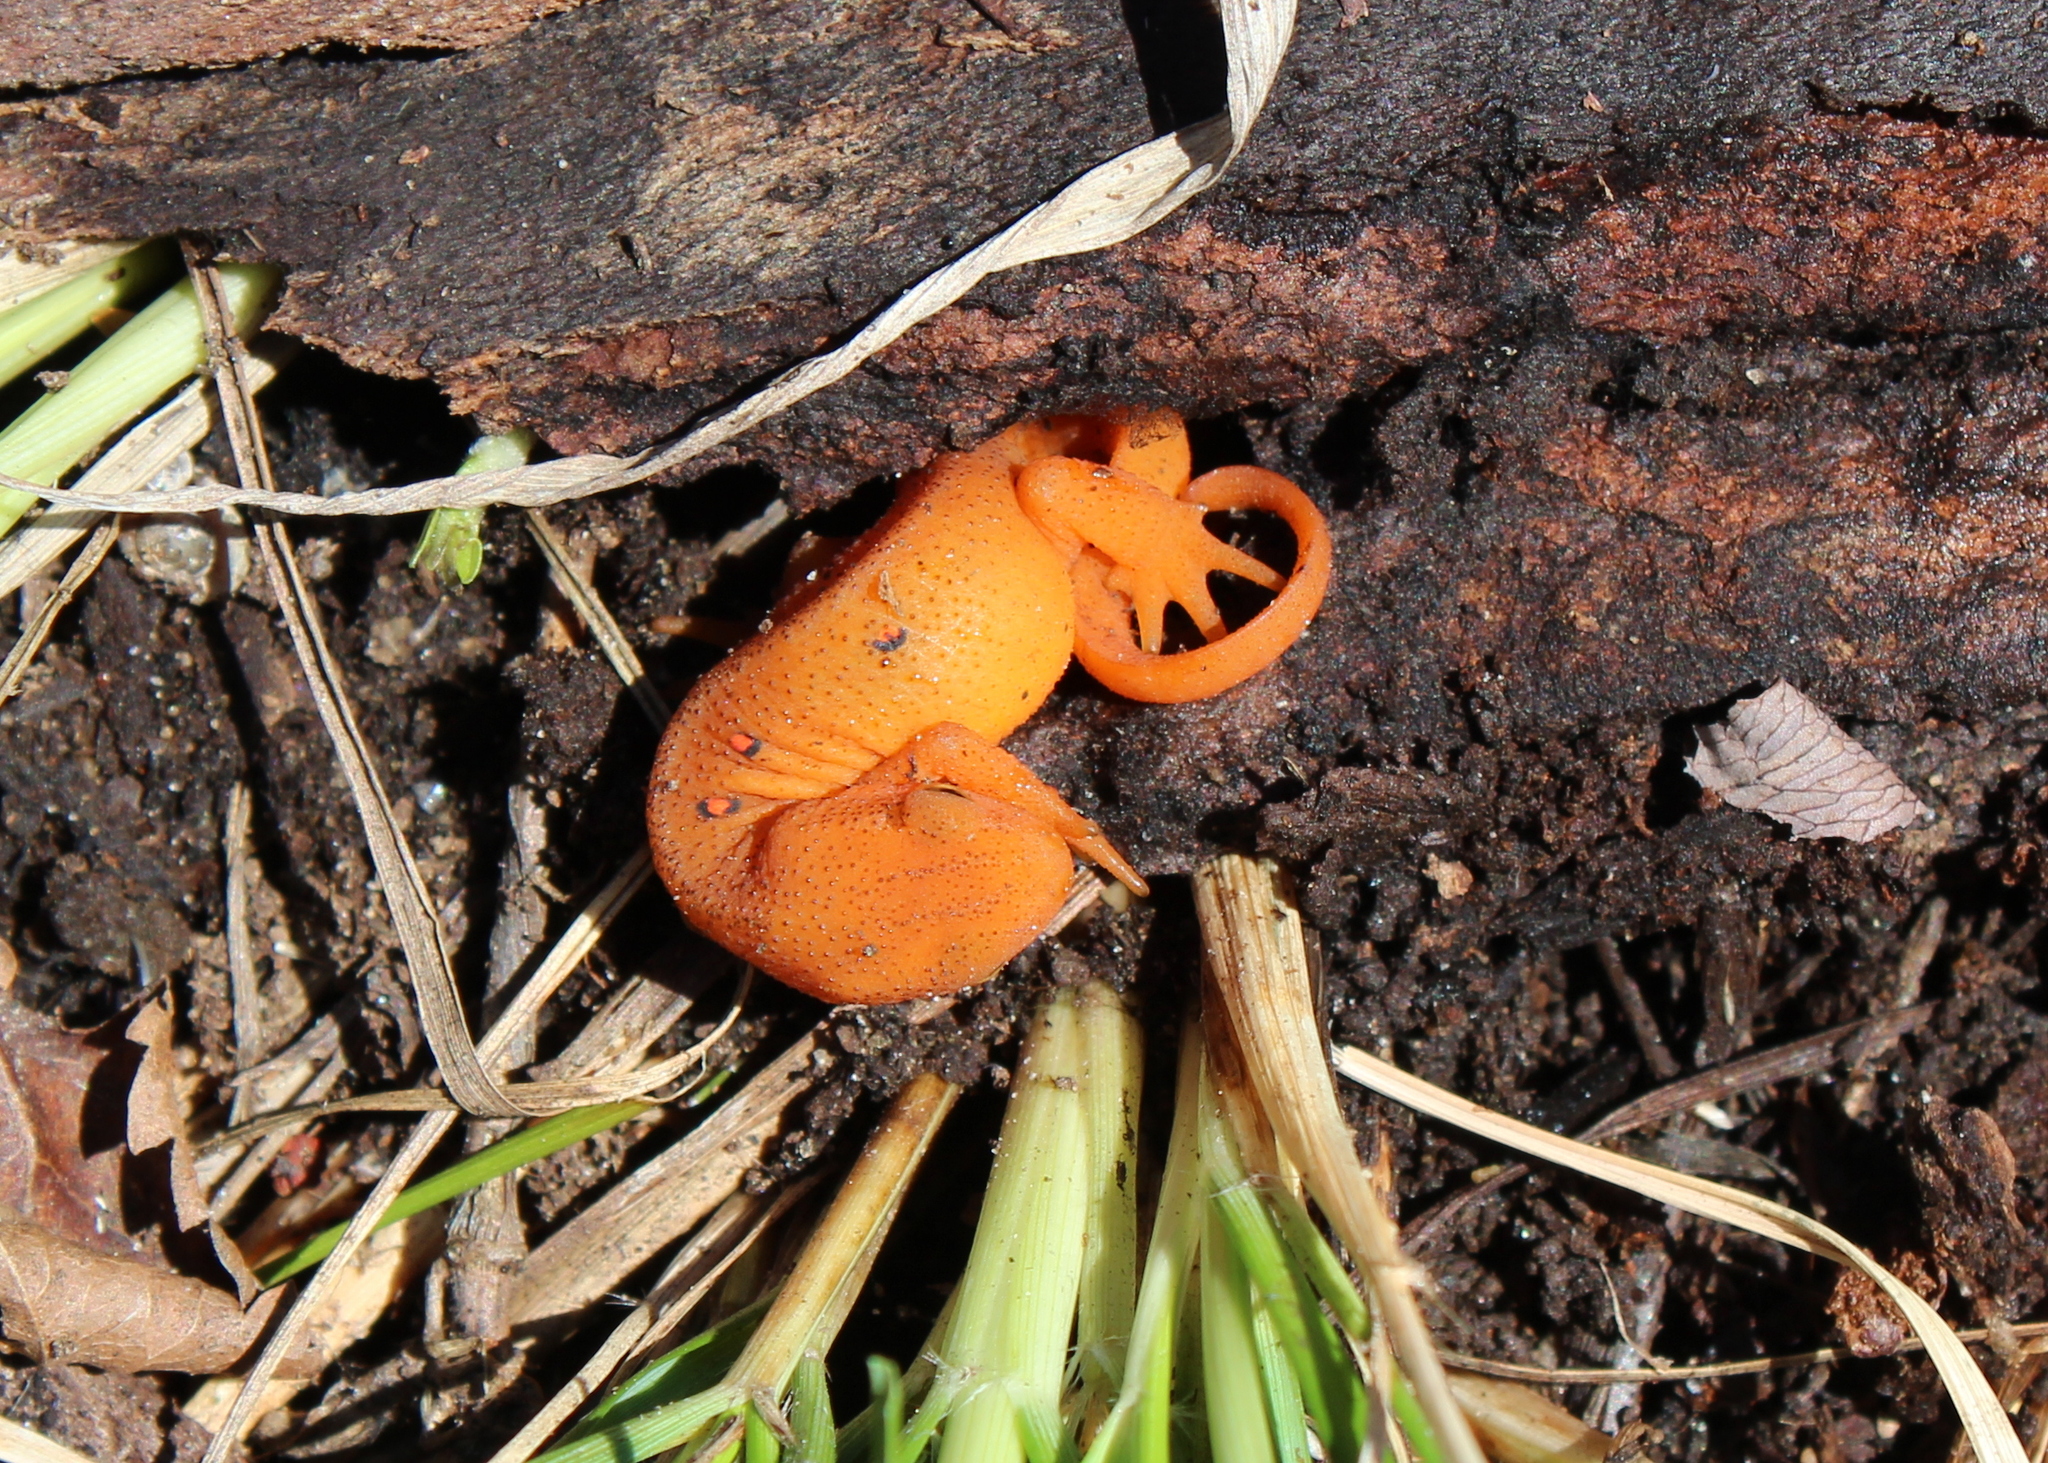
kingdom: Animalia
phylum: Chordata
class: Amphibia
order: Caudata
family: Salamandridae
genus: Notophthalmus
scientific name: Notophthalmus viridescens
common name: Eastern newt
